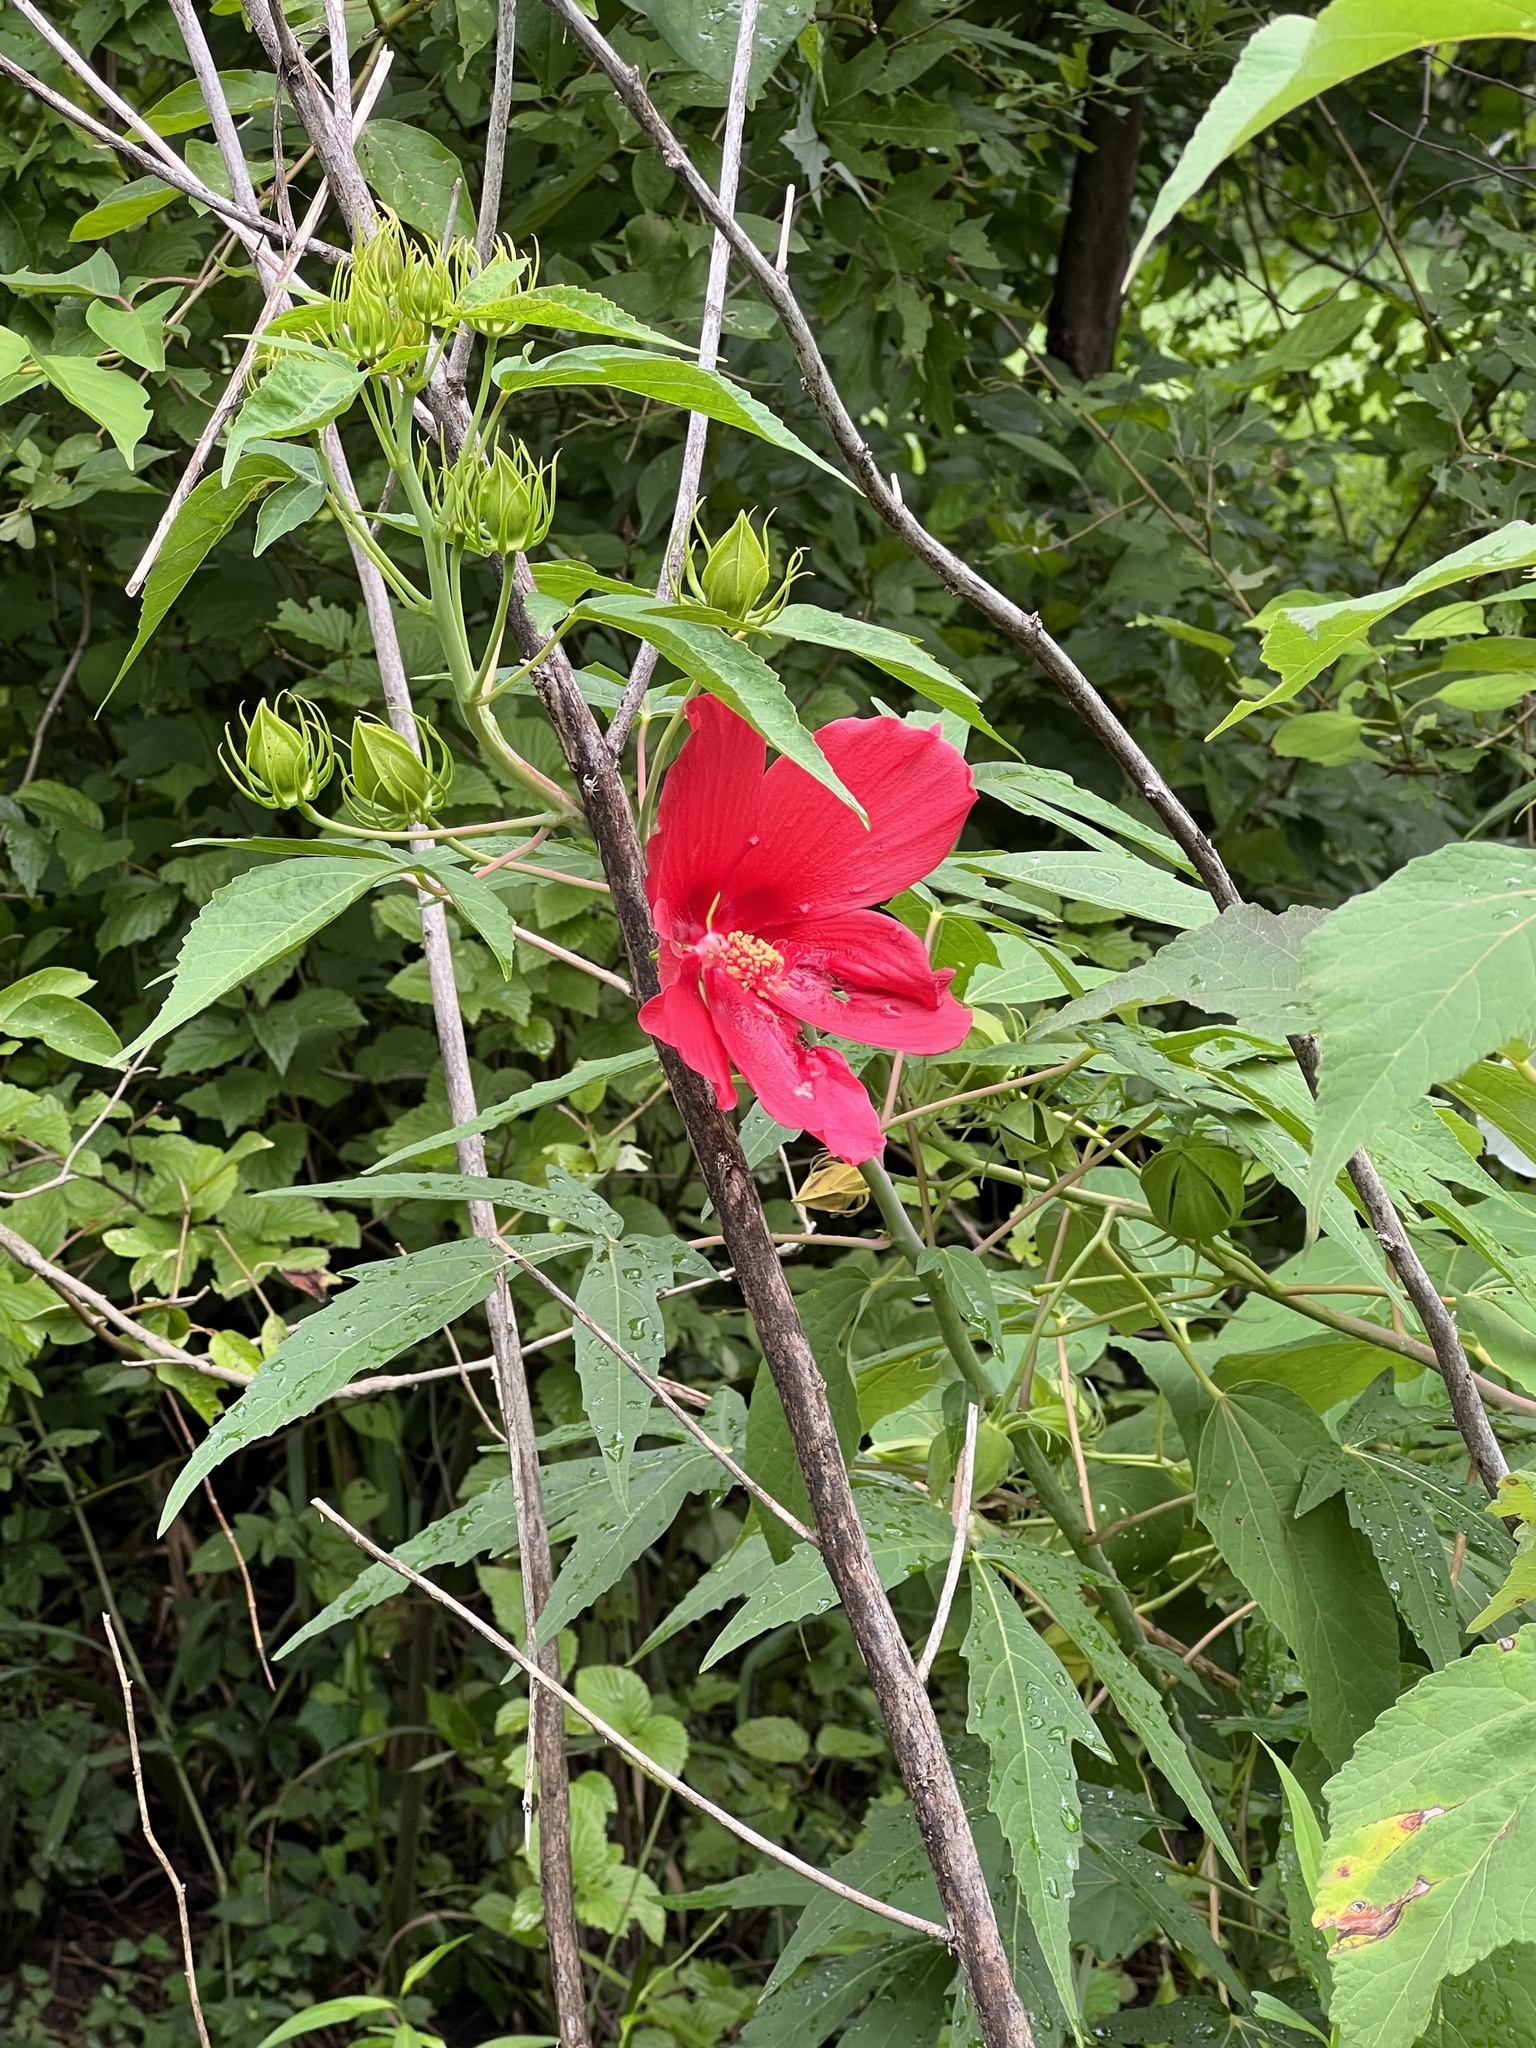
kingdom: Plantae
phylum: Tracheophyta
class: Magnoliopsida
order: Malvales
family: Malvaceae
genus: Hibiscus
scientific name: Hibiscus coccineus
